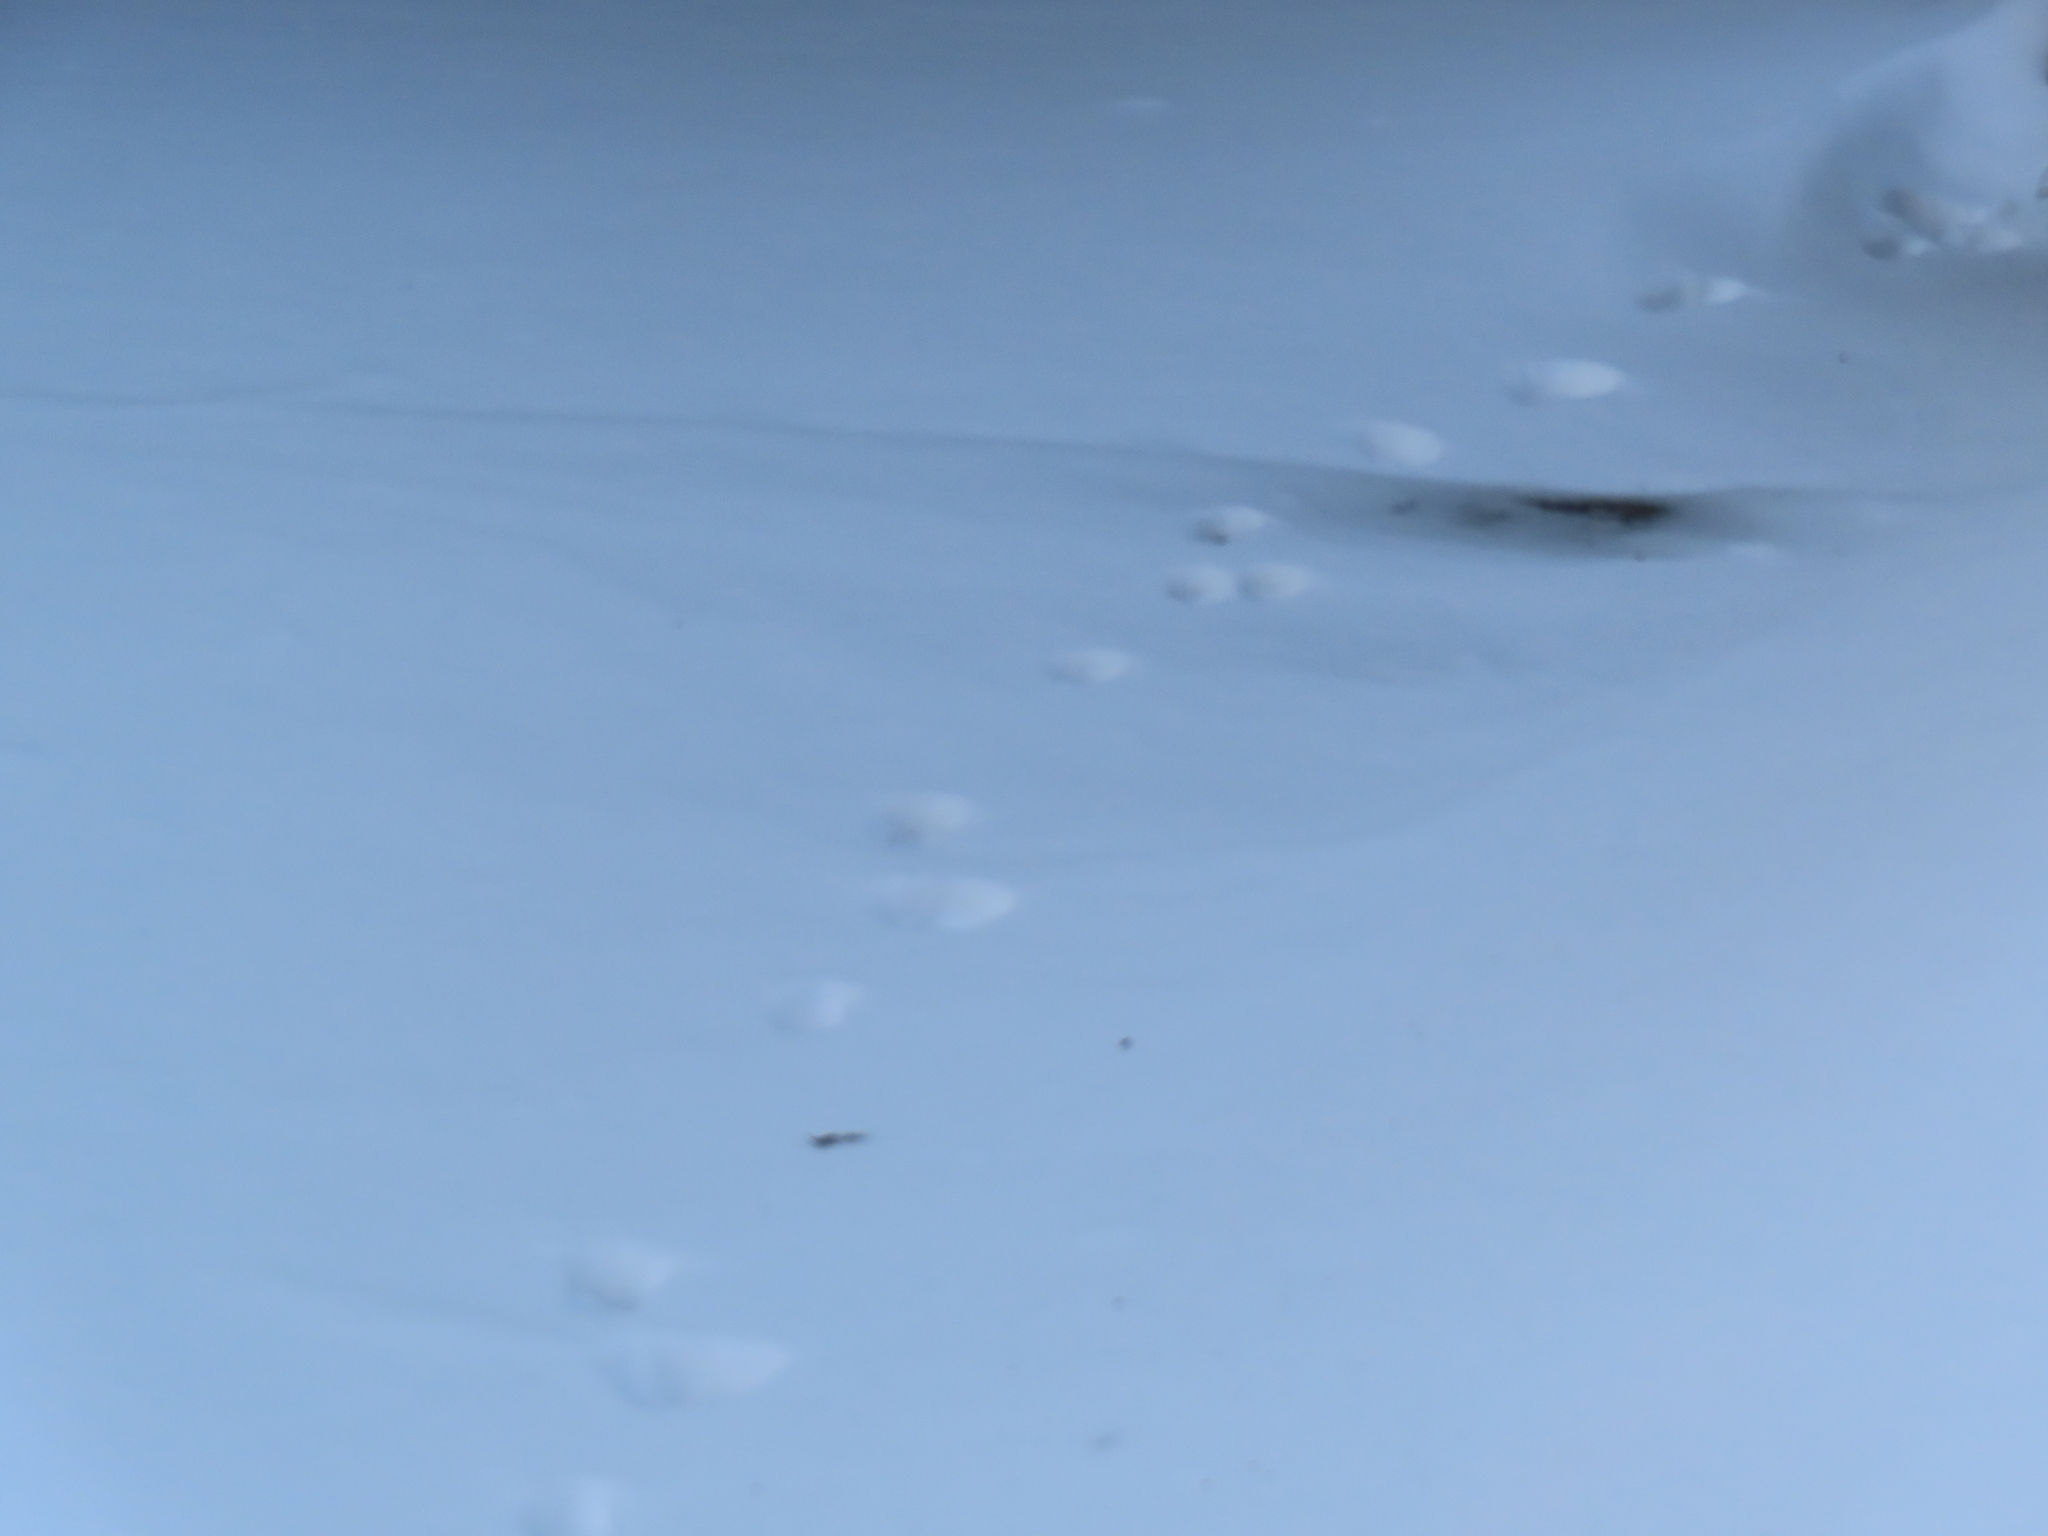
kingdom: Animalia
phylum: Chordata
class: Mammalia
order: Rodentia
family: Sciuridae
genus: Sciurus
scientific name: Sciurus carolinensis
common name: Eastern gray squirrel
